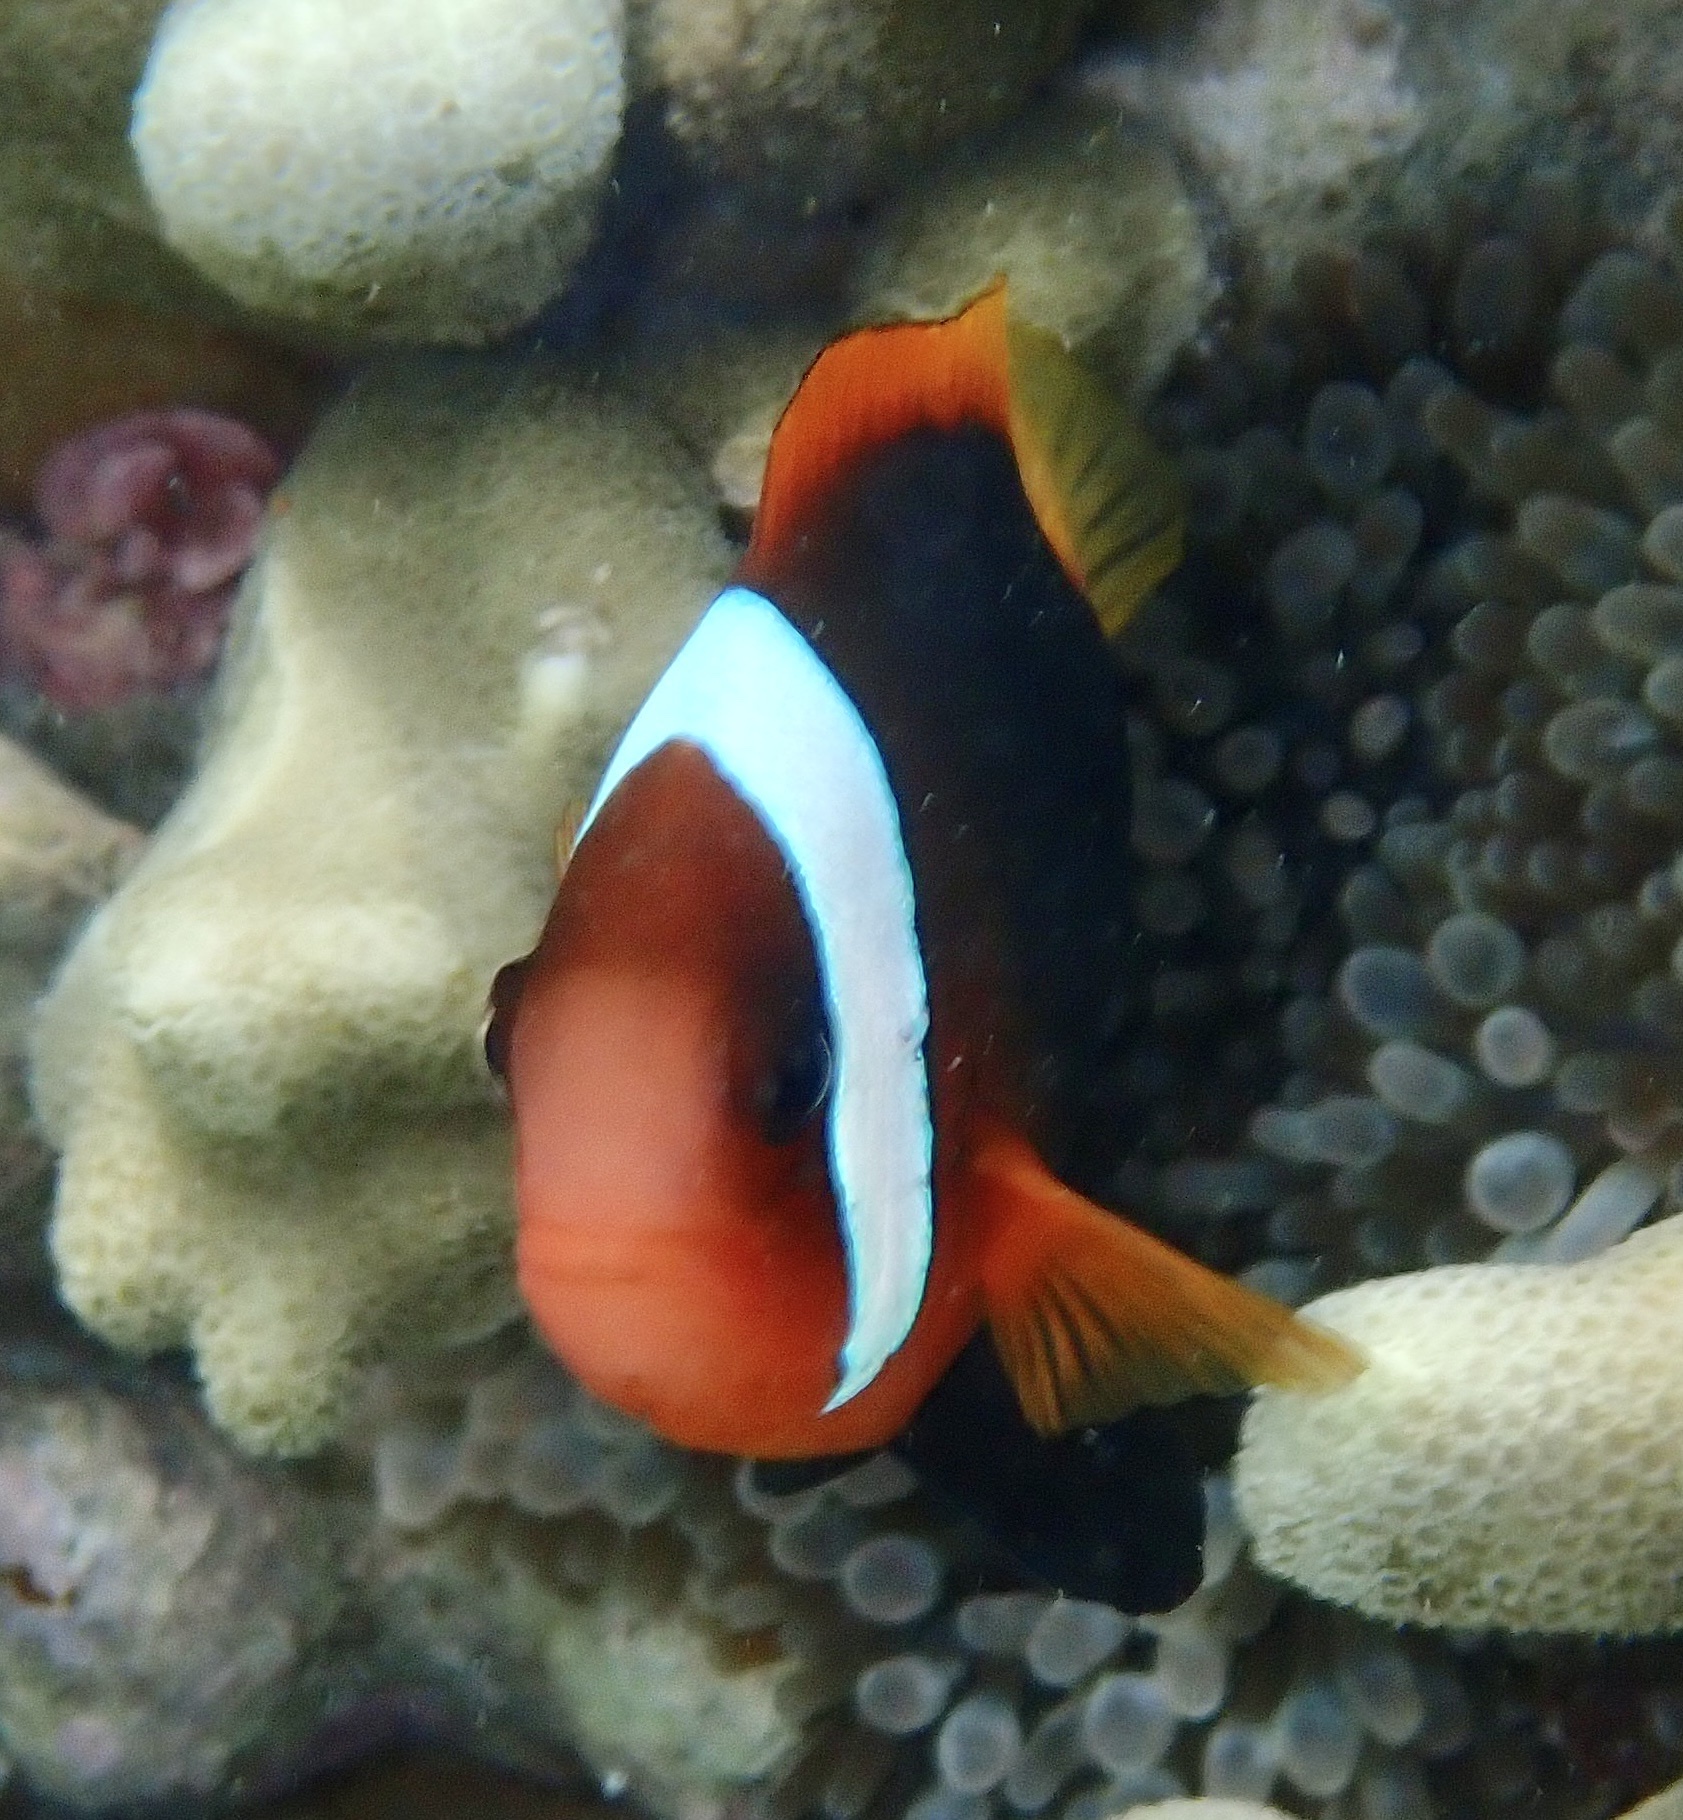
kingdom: Animalia
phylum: Chordata
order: Perciformes
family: Pomacentridae
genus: Amphiprion
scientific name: Amphiprion melanopus
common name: Black anemonefish
